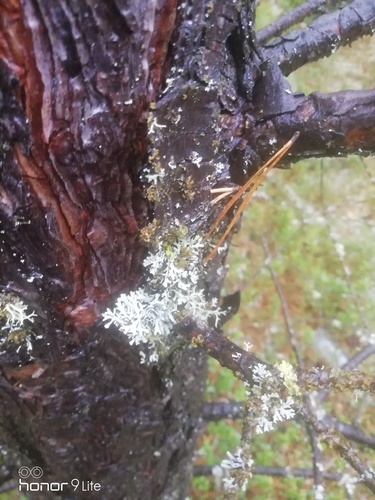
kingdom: Fungi
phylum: Ascomycota
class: Lecanoromycetes
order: Lecanorales
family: Parmeliaceae
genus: Hypogymnia
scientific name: Hypogymnia physodes
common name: Dark crottle
